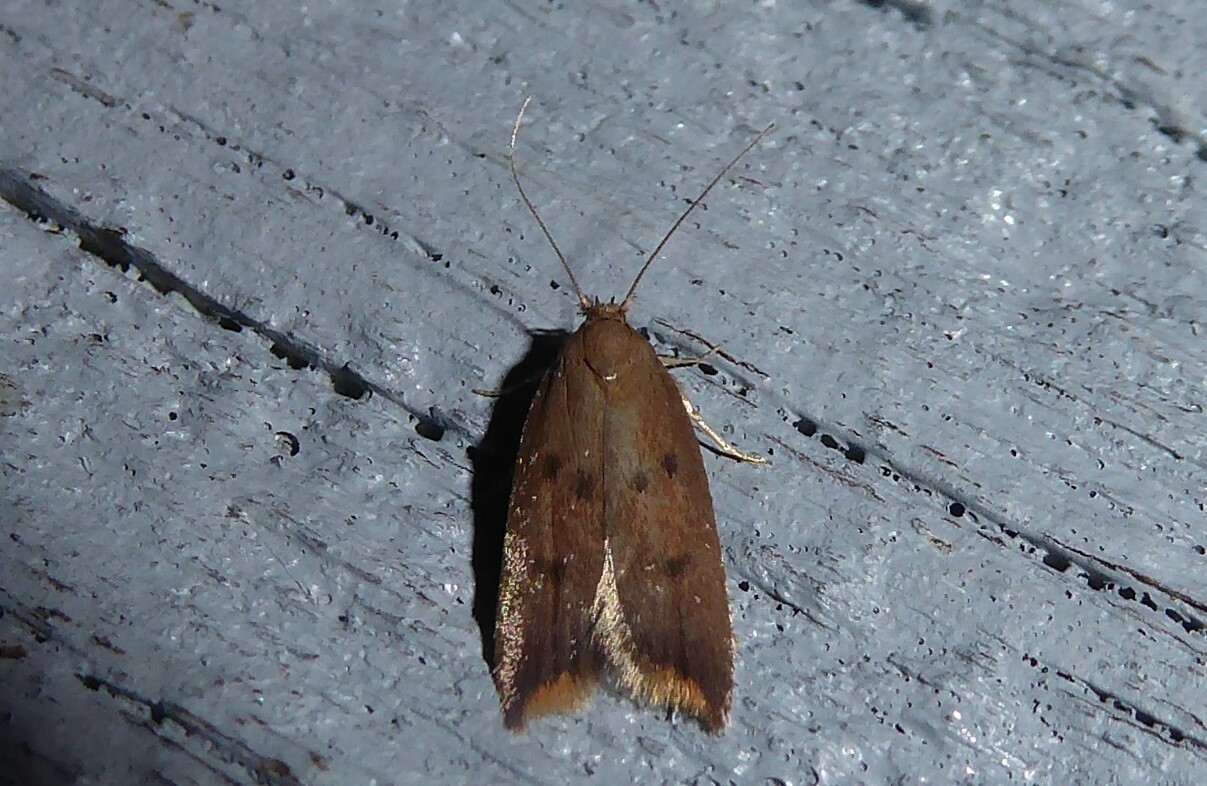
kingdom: Animalia
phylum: Arthropoda
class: Insecta
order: Lepidoptera
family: Oecophoridae
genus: Tachystola
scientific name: Tachystola acroxantha
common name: Ruddy streak
